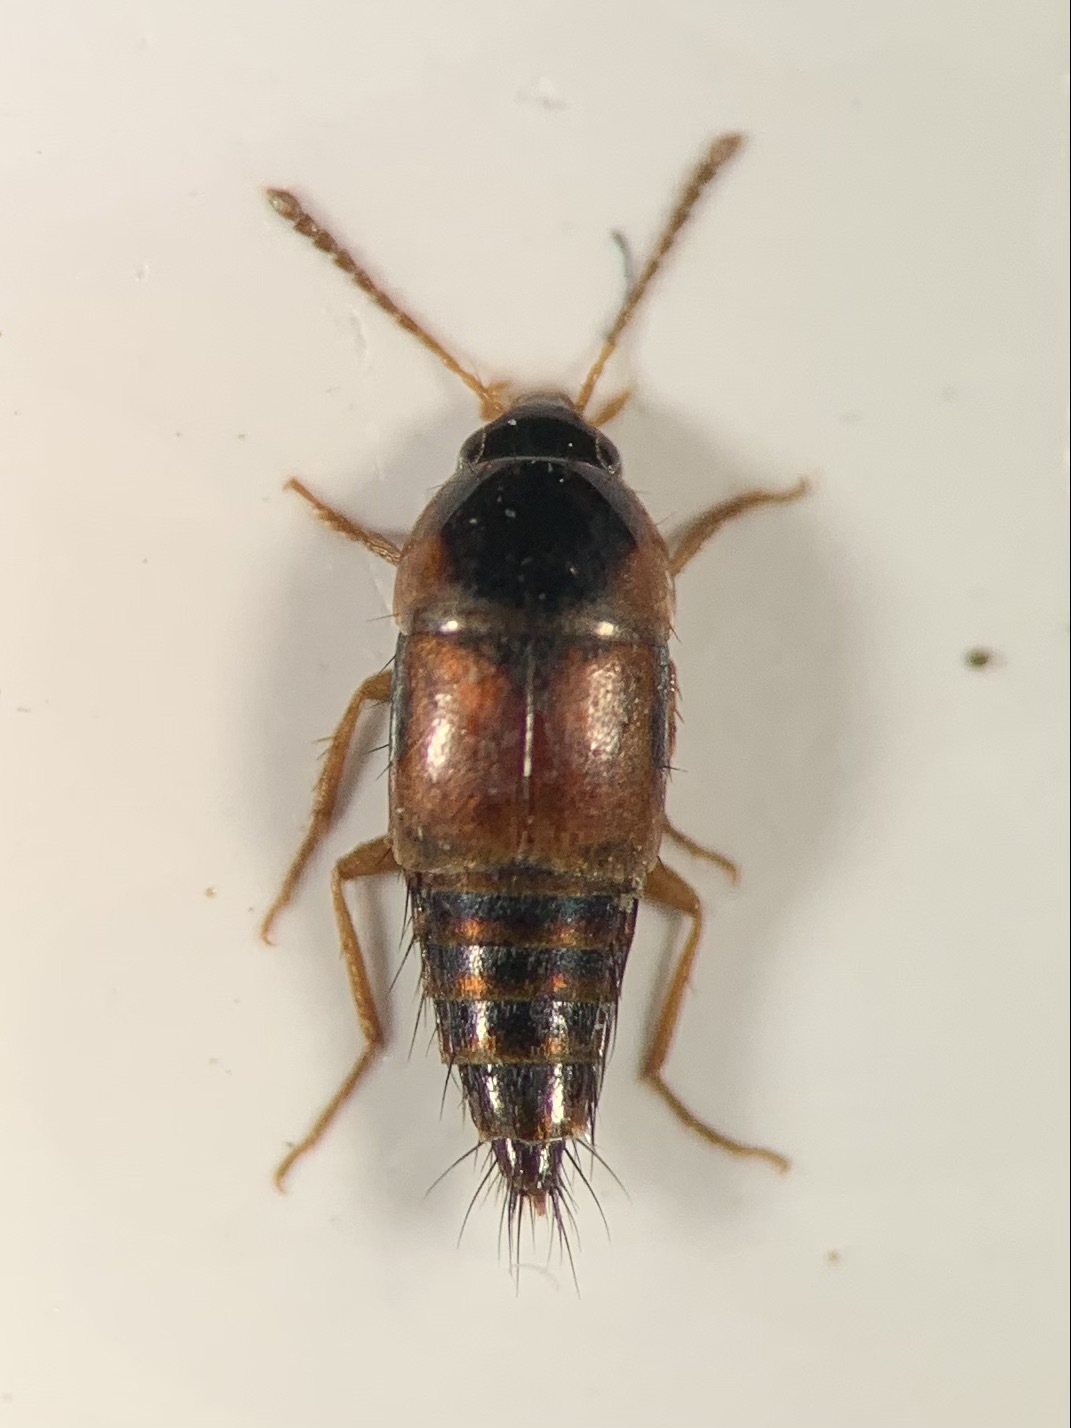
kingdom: Animalia
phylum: Arthropoda
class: Insecta
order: Coleoptera
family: Staphylinidae
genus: Tachyporus
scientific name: Tachyporus hypnorum
